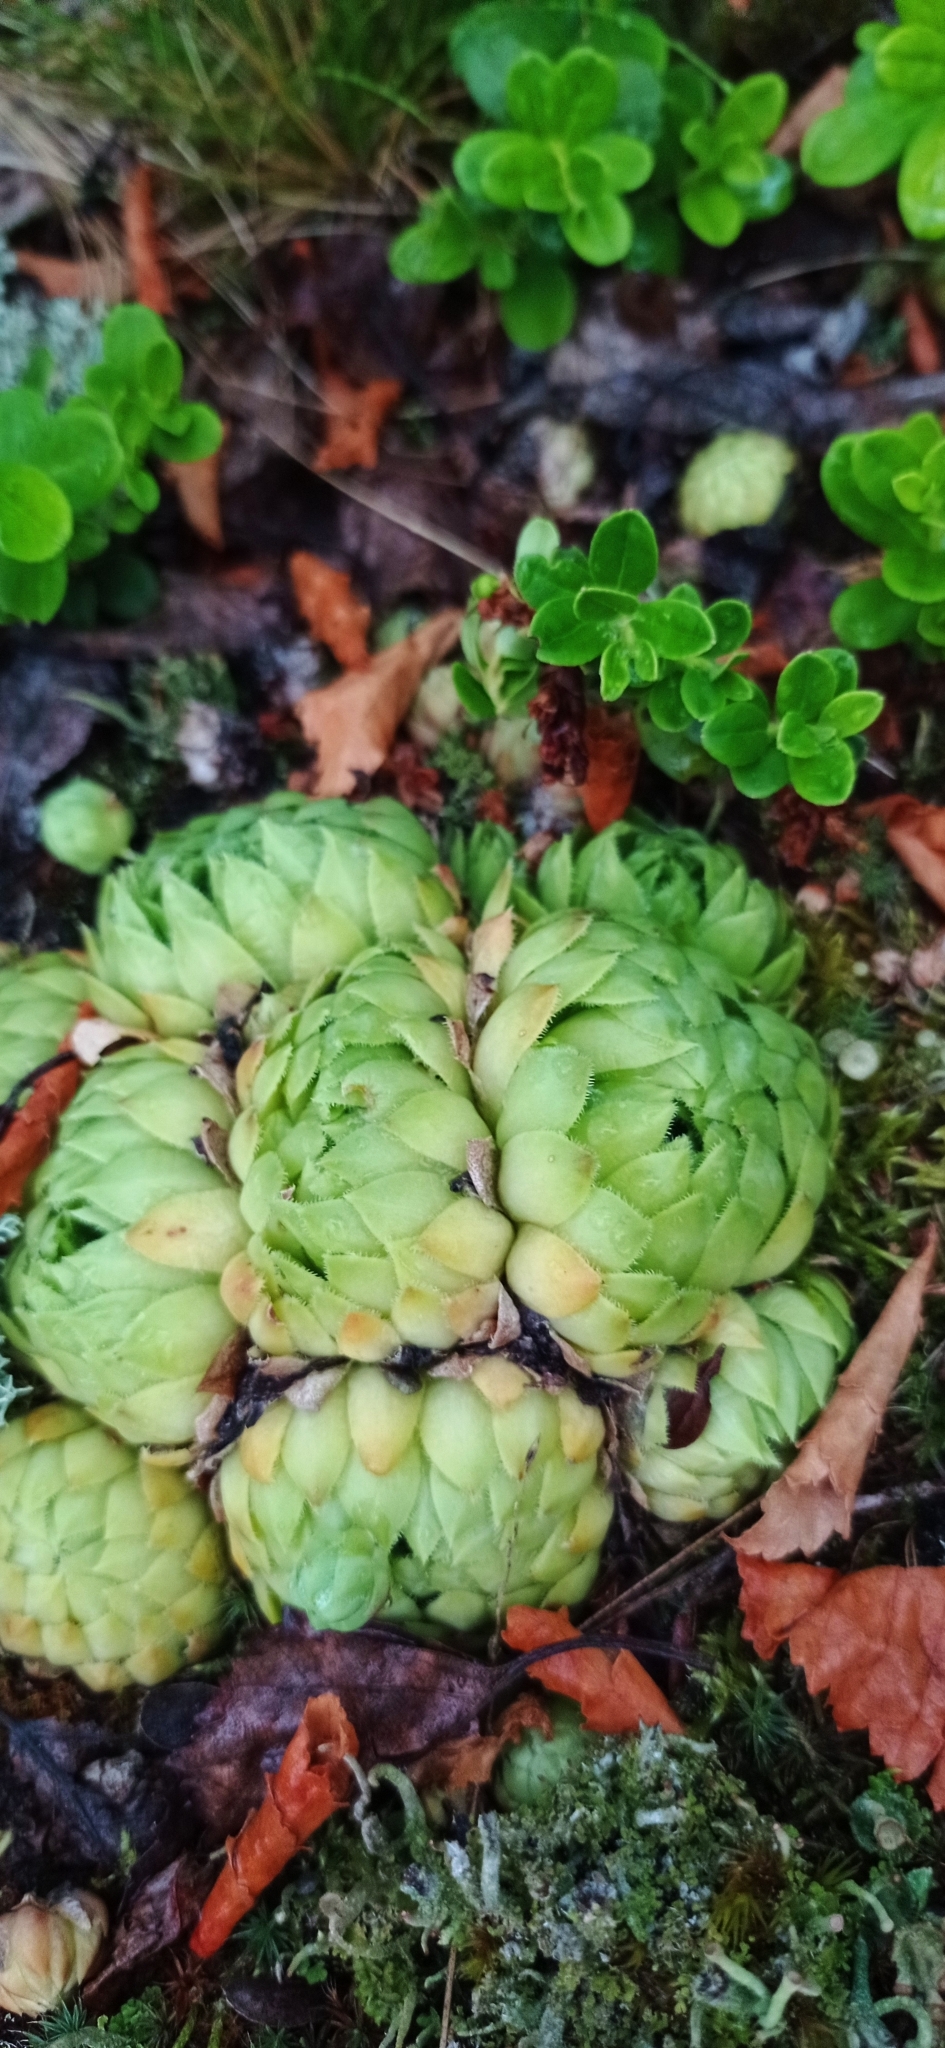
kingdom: Plantae
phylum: Tracheophyta
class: Magnoliopsida
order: Saxifragales
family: Crassulaceae
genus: Sempervivum
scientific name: Sempervivum globiferum
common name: Rolling hen-and-chicks
